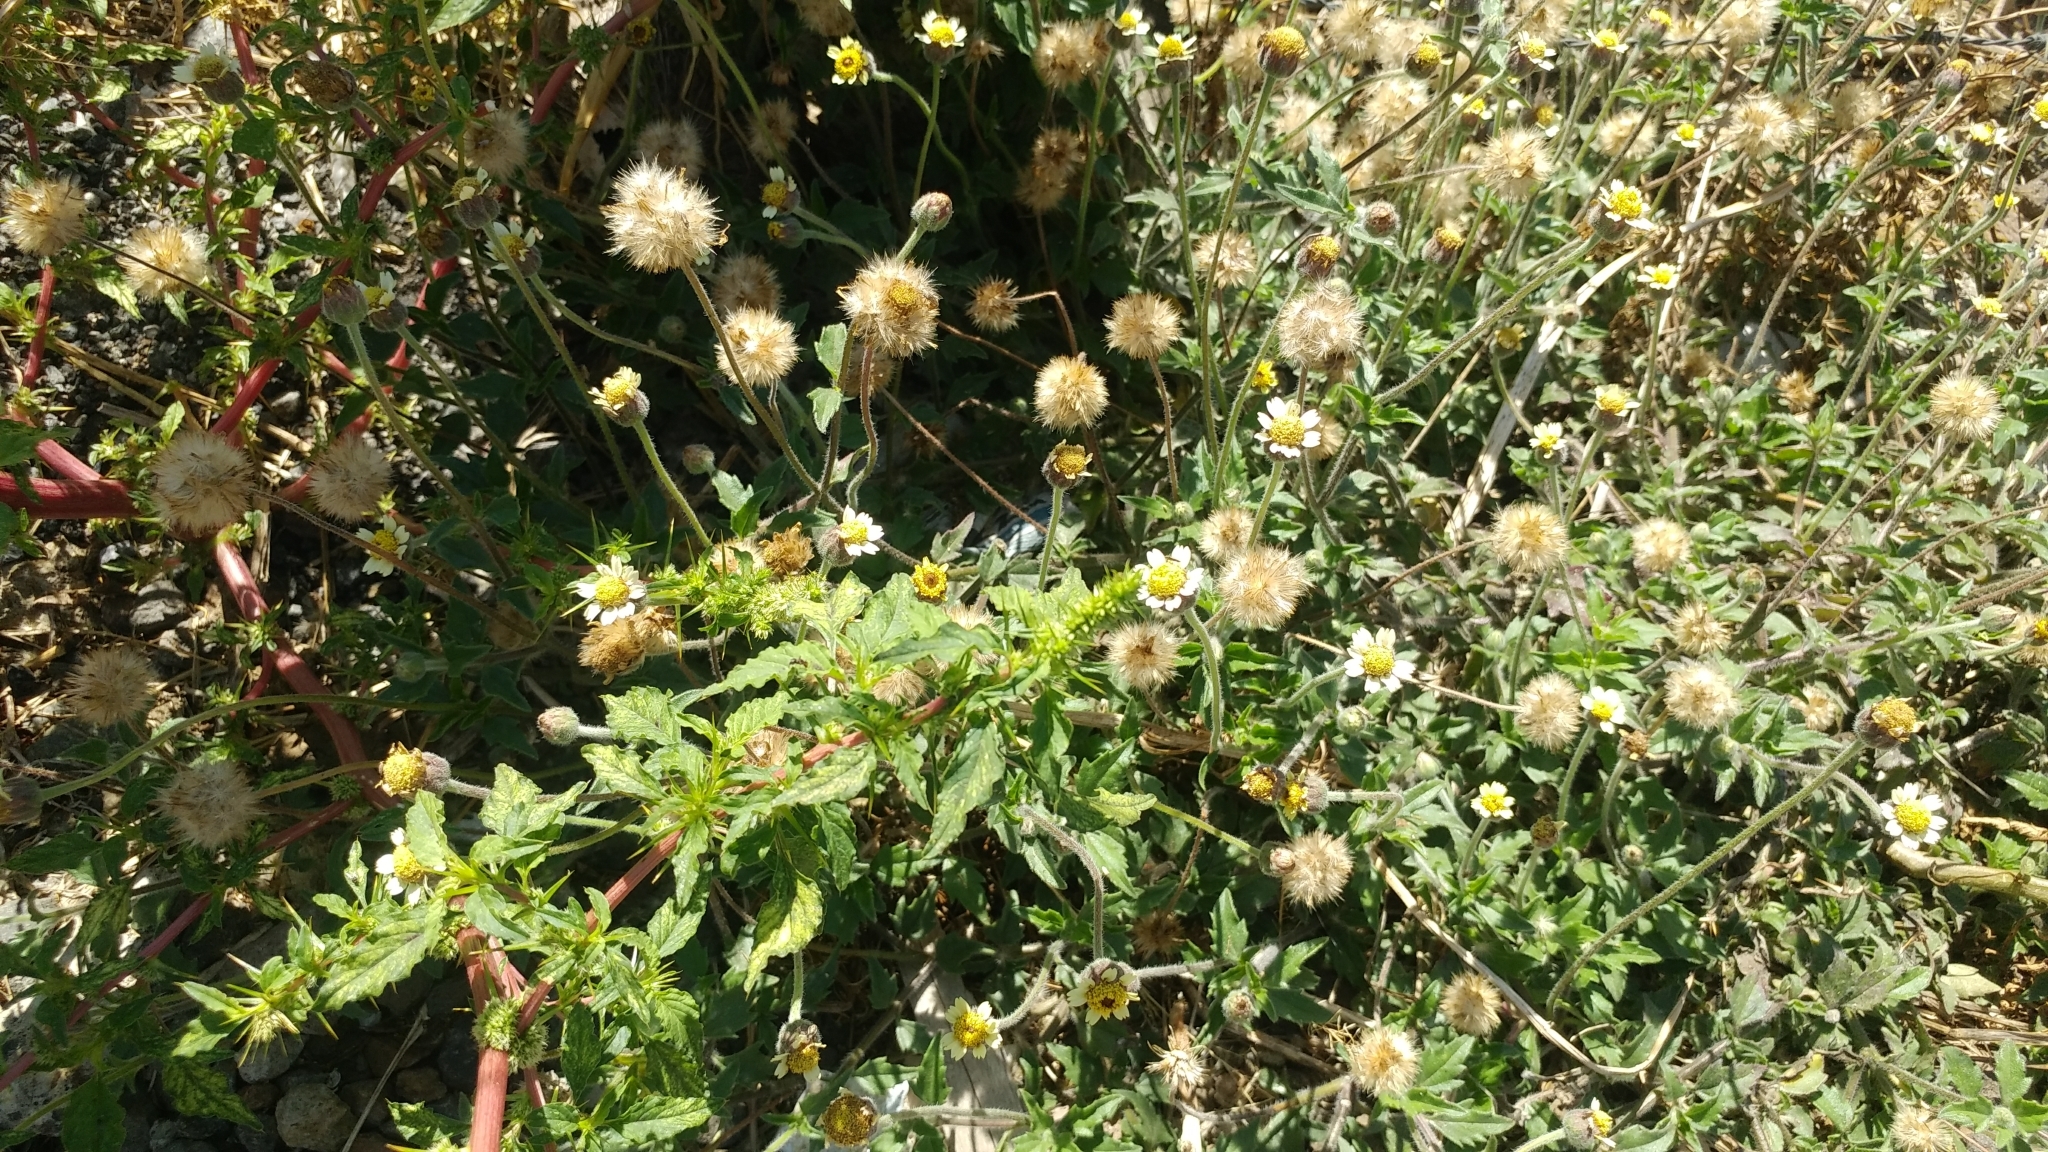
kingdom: Plantae
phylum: Tracheophyta
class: Magnoliopsida
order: Asterales
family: Asteraceae
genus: Tridax
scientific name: Tridax procumbens
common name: Coatbuttons
